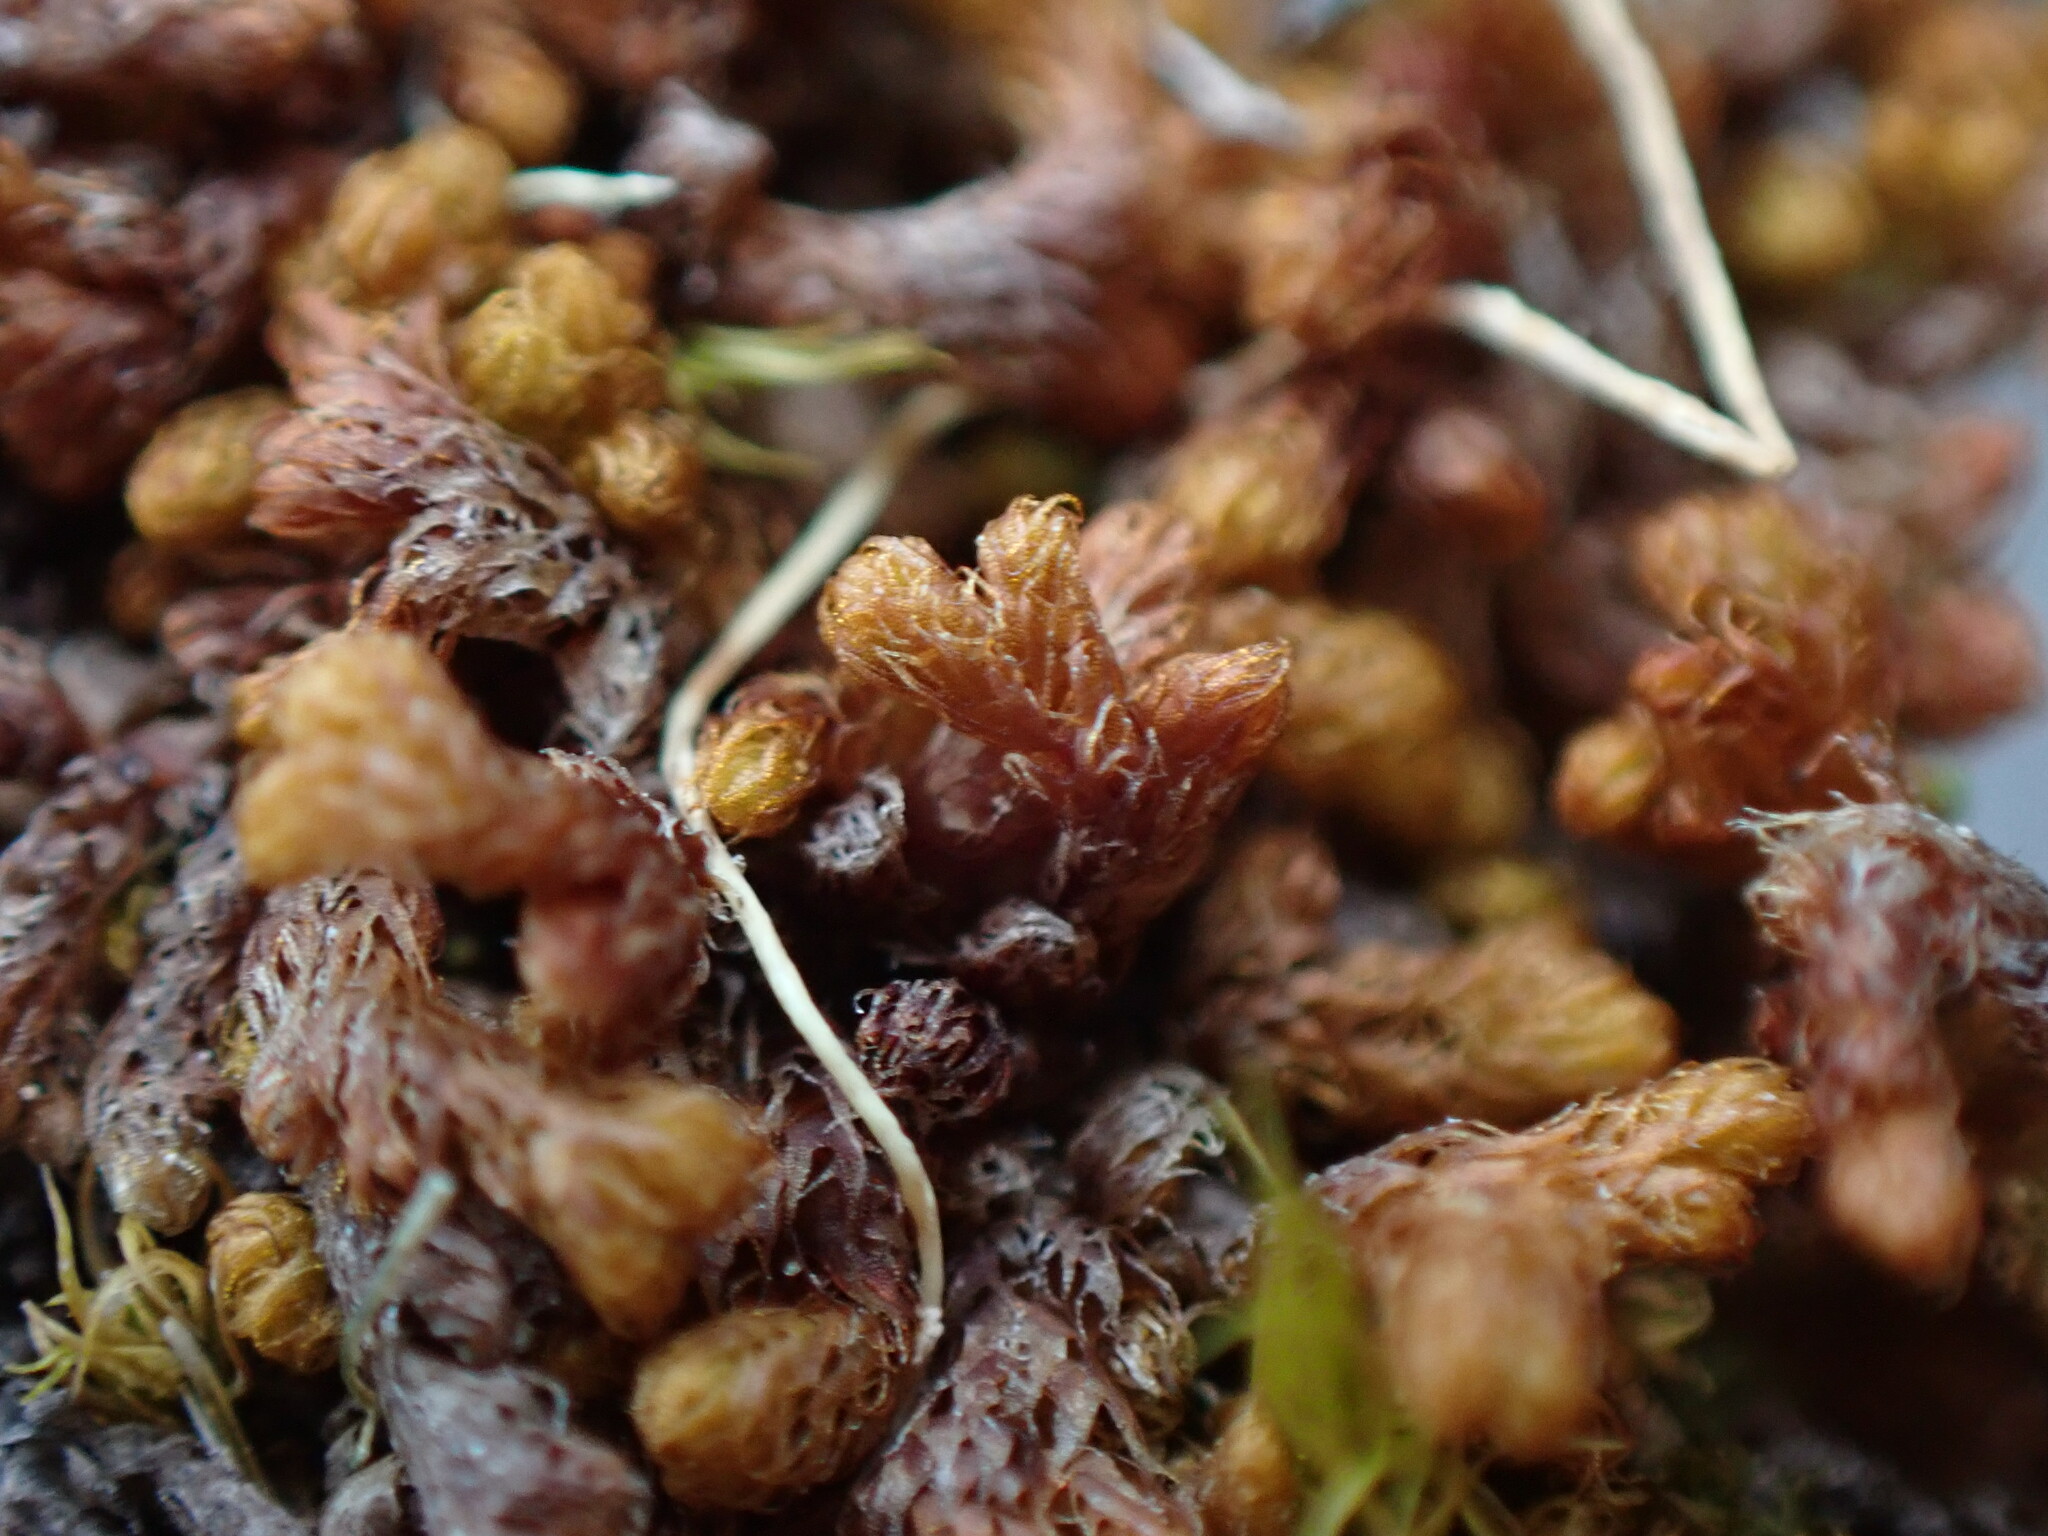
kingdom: Plantae
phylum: Marchantiophyta
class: Jungermanniopsida
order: Ptilidiales
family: Ptilidiaceae
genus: Ptilidium
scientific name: Ptilidium californicum
